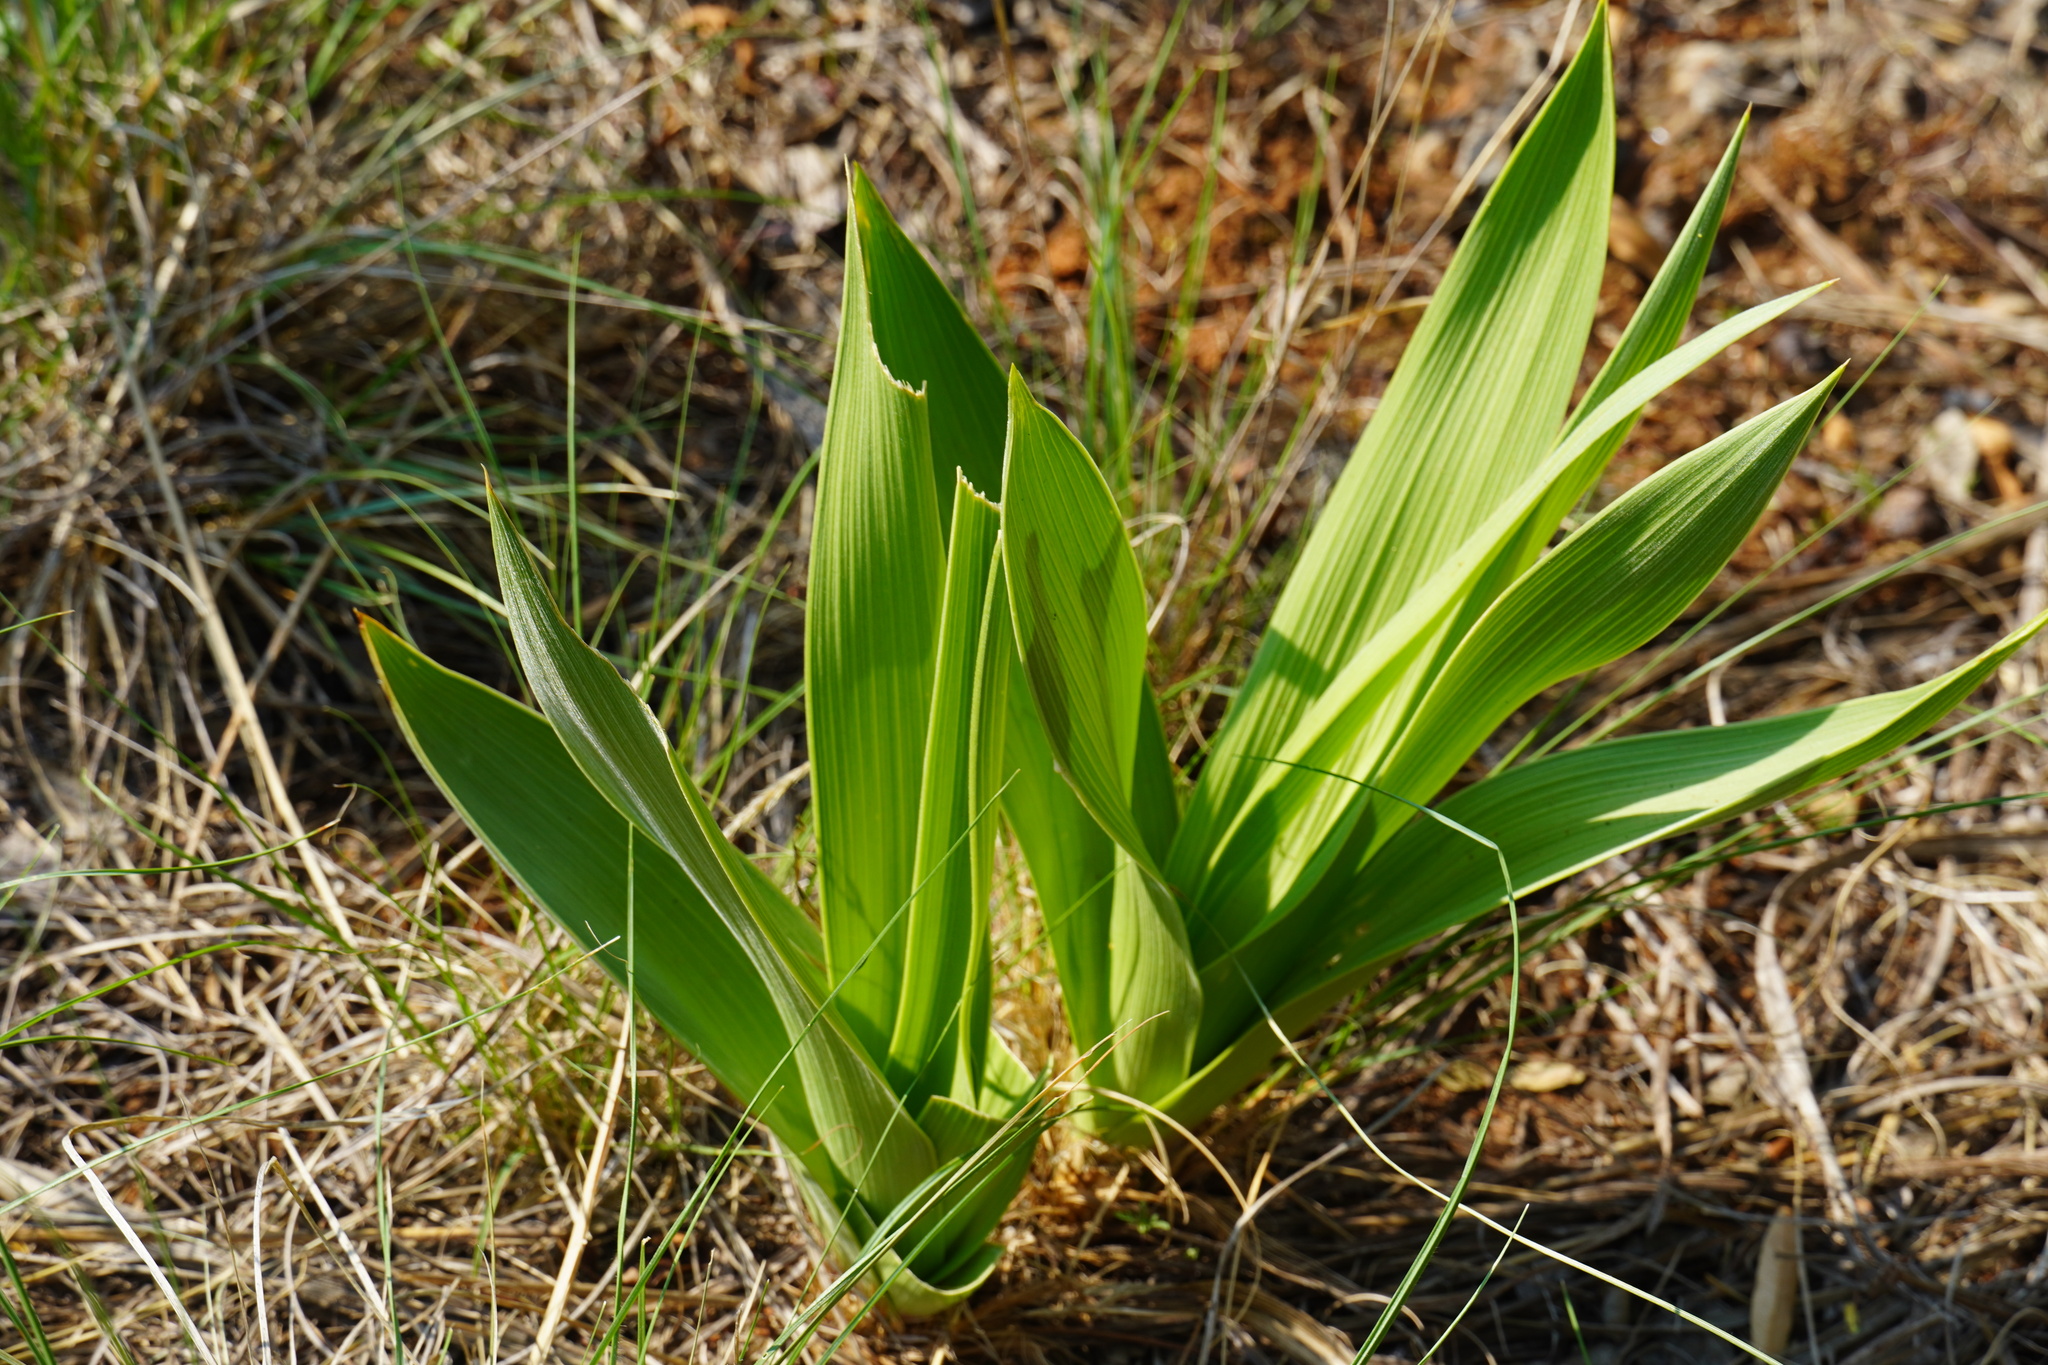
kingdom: Plantae
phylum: Tracheophyta
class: Liliopsida
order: Asparagales
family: Asparagaceae
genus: Schizocarphus
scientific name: Schizocarphus nervosus
